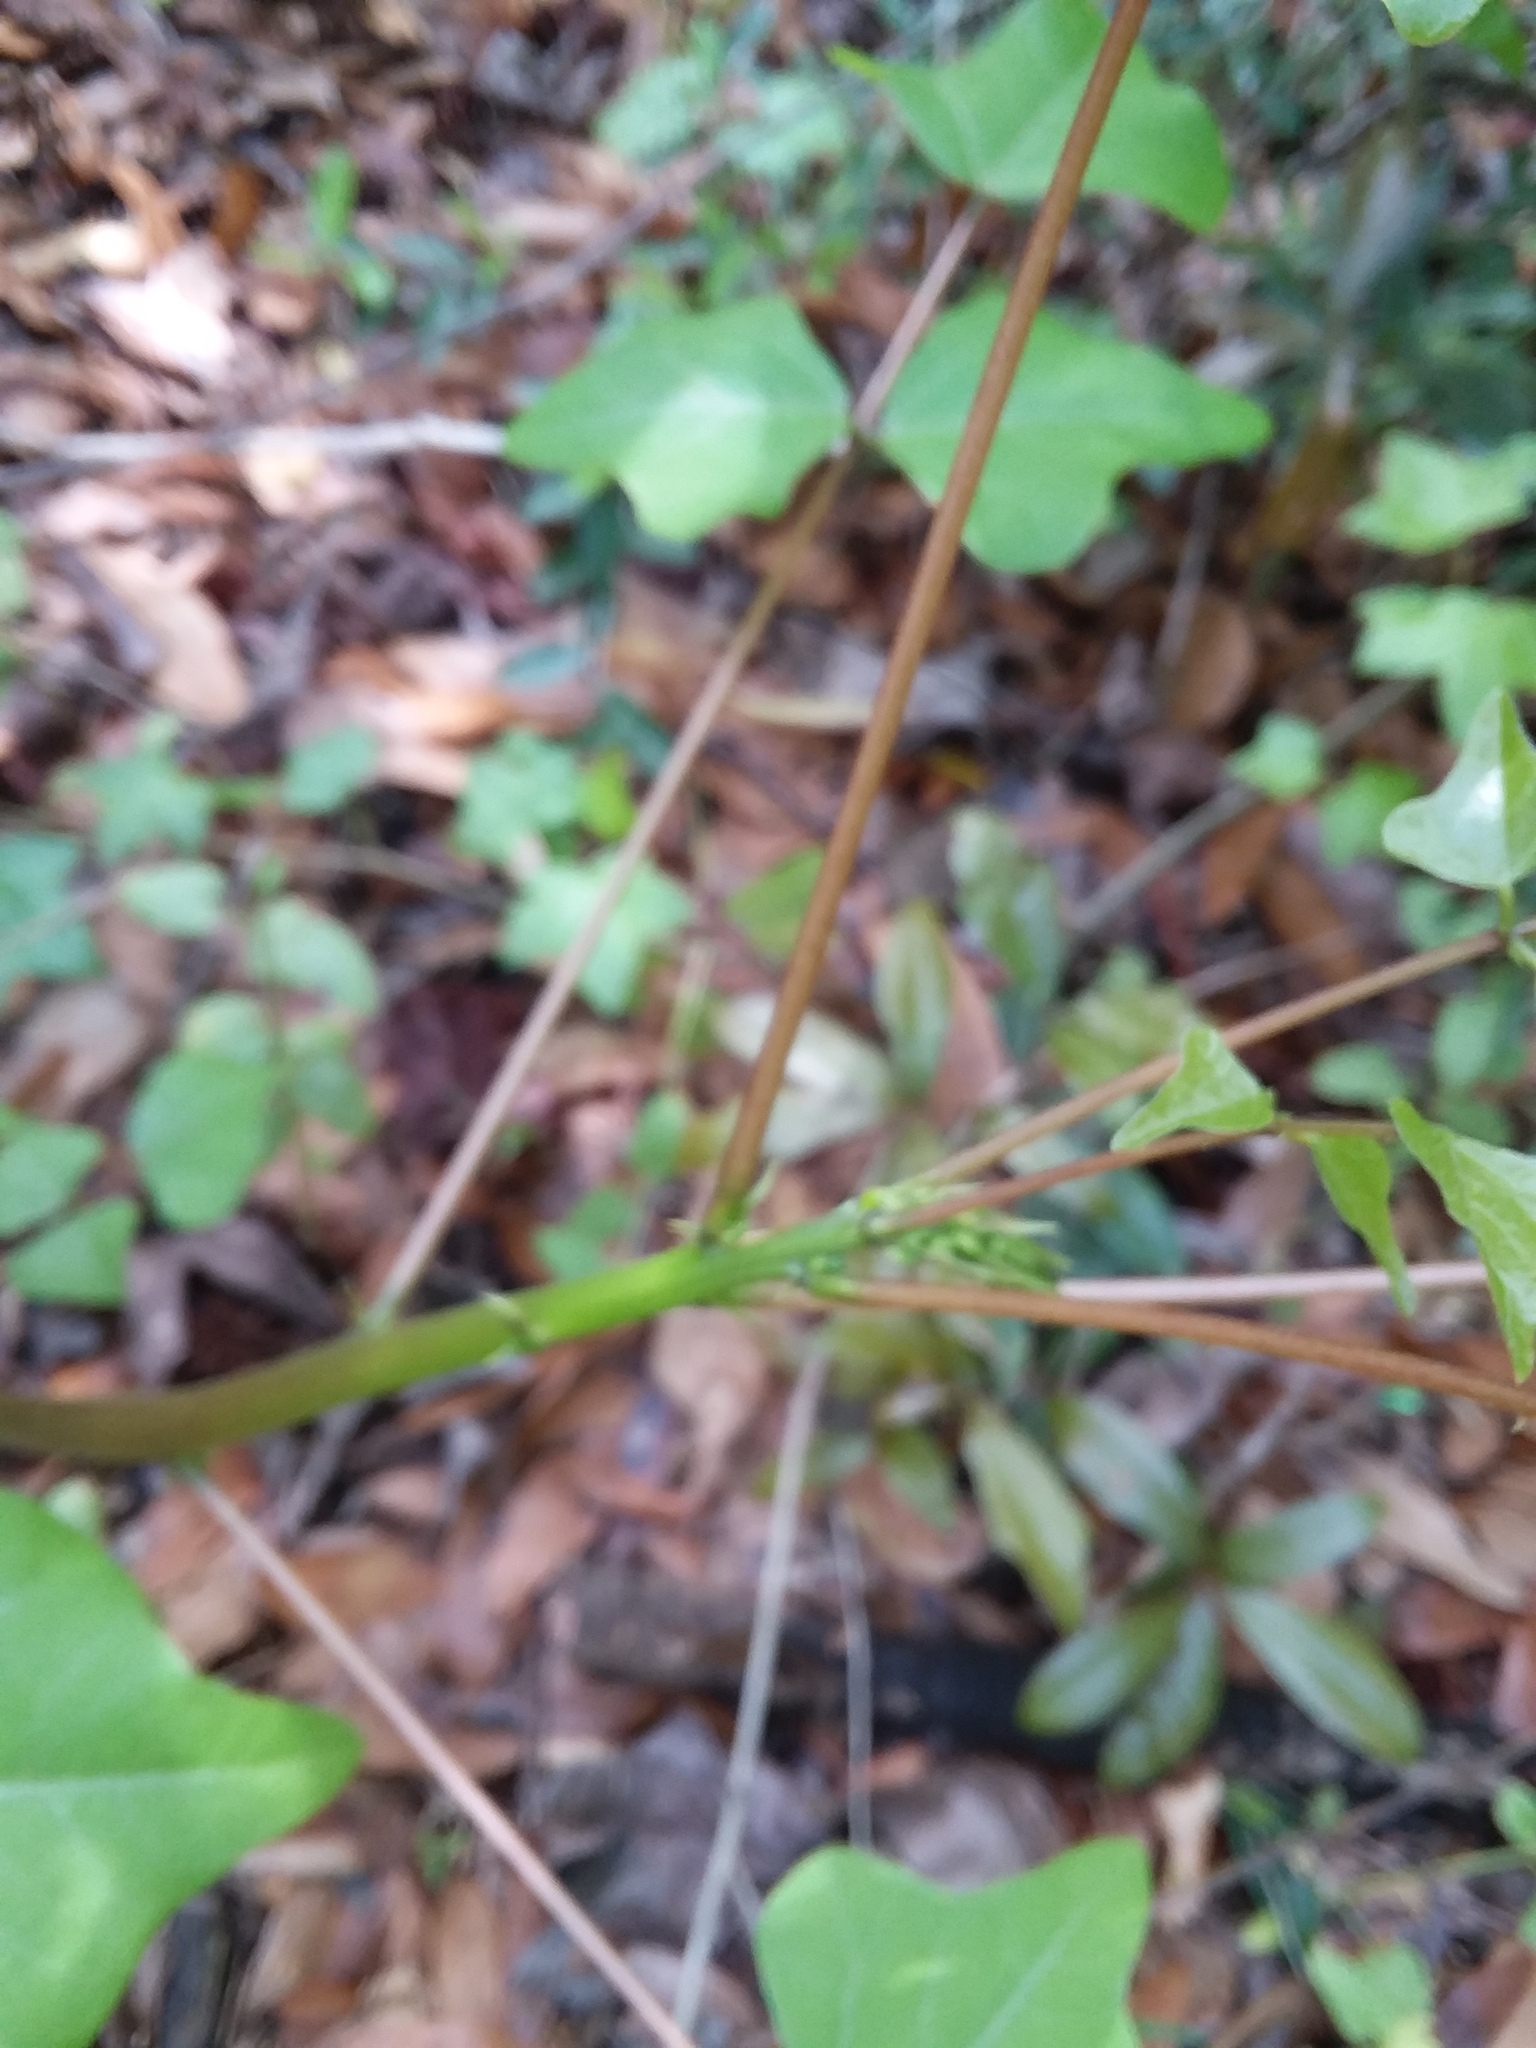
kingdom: Plantae
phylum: Tracheophyta
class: Magnoliopsida
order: Fabales
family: Fabaceae
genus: Erythrina
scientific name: Erythrina herbacea
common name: Coral-bean
